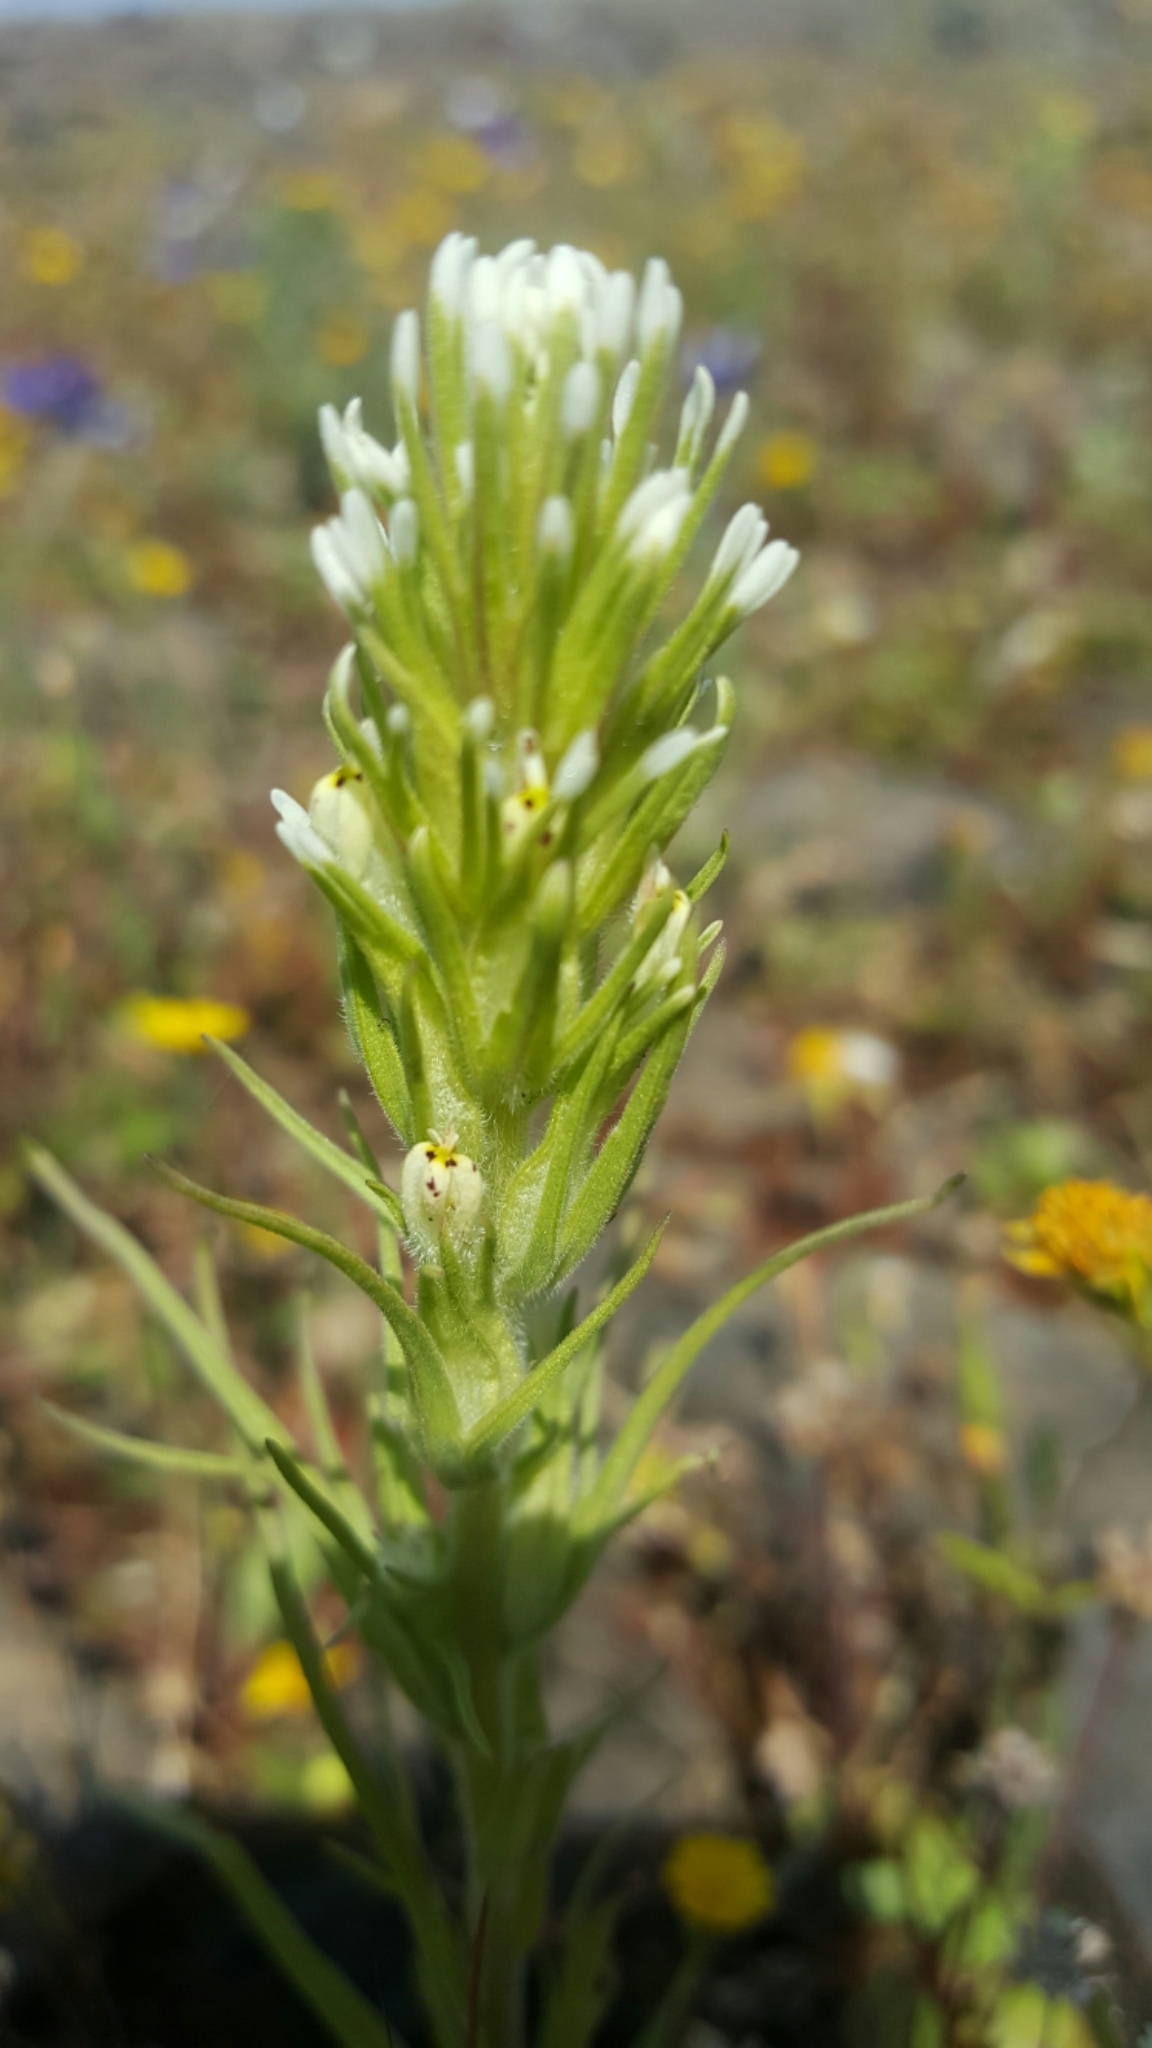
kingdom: Plantae
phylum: Tracheophyta
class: Magnoliopsida
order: Lamiales
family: Orobanchaceae
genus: Castilleja
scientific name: Castilleja attenuata
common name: Valley tassels
